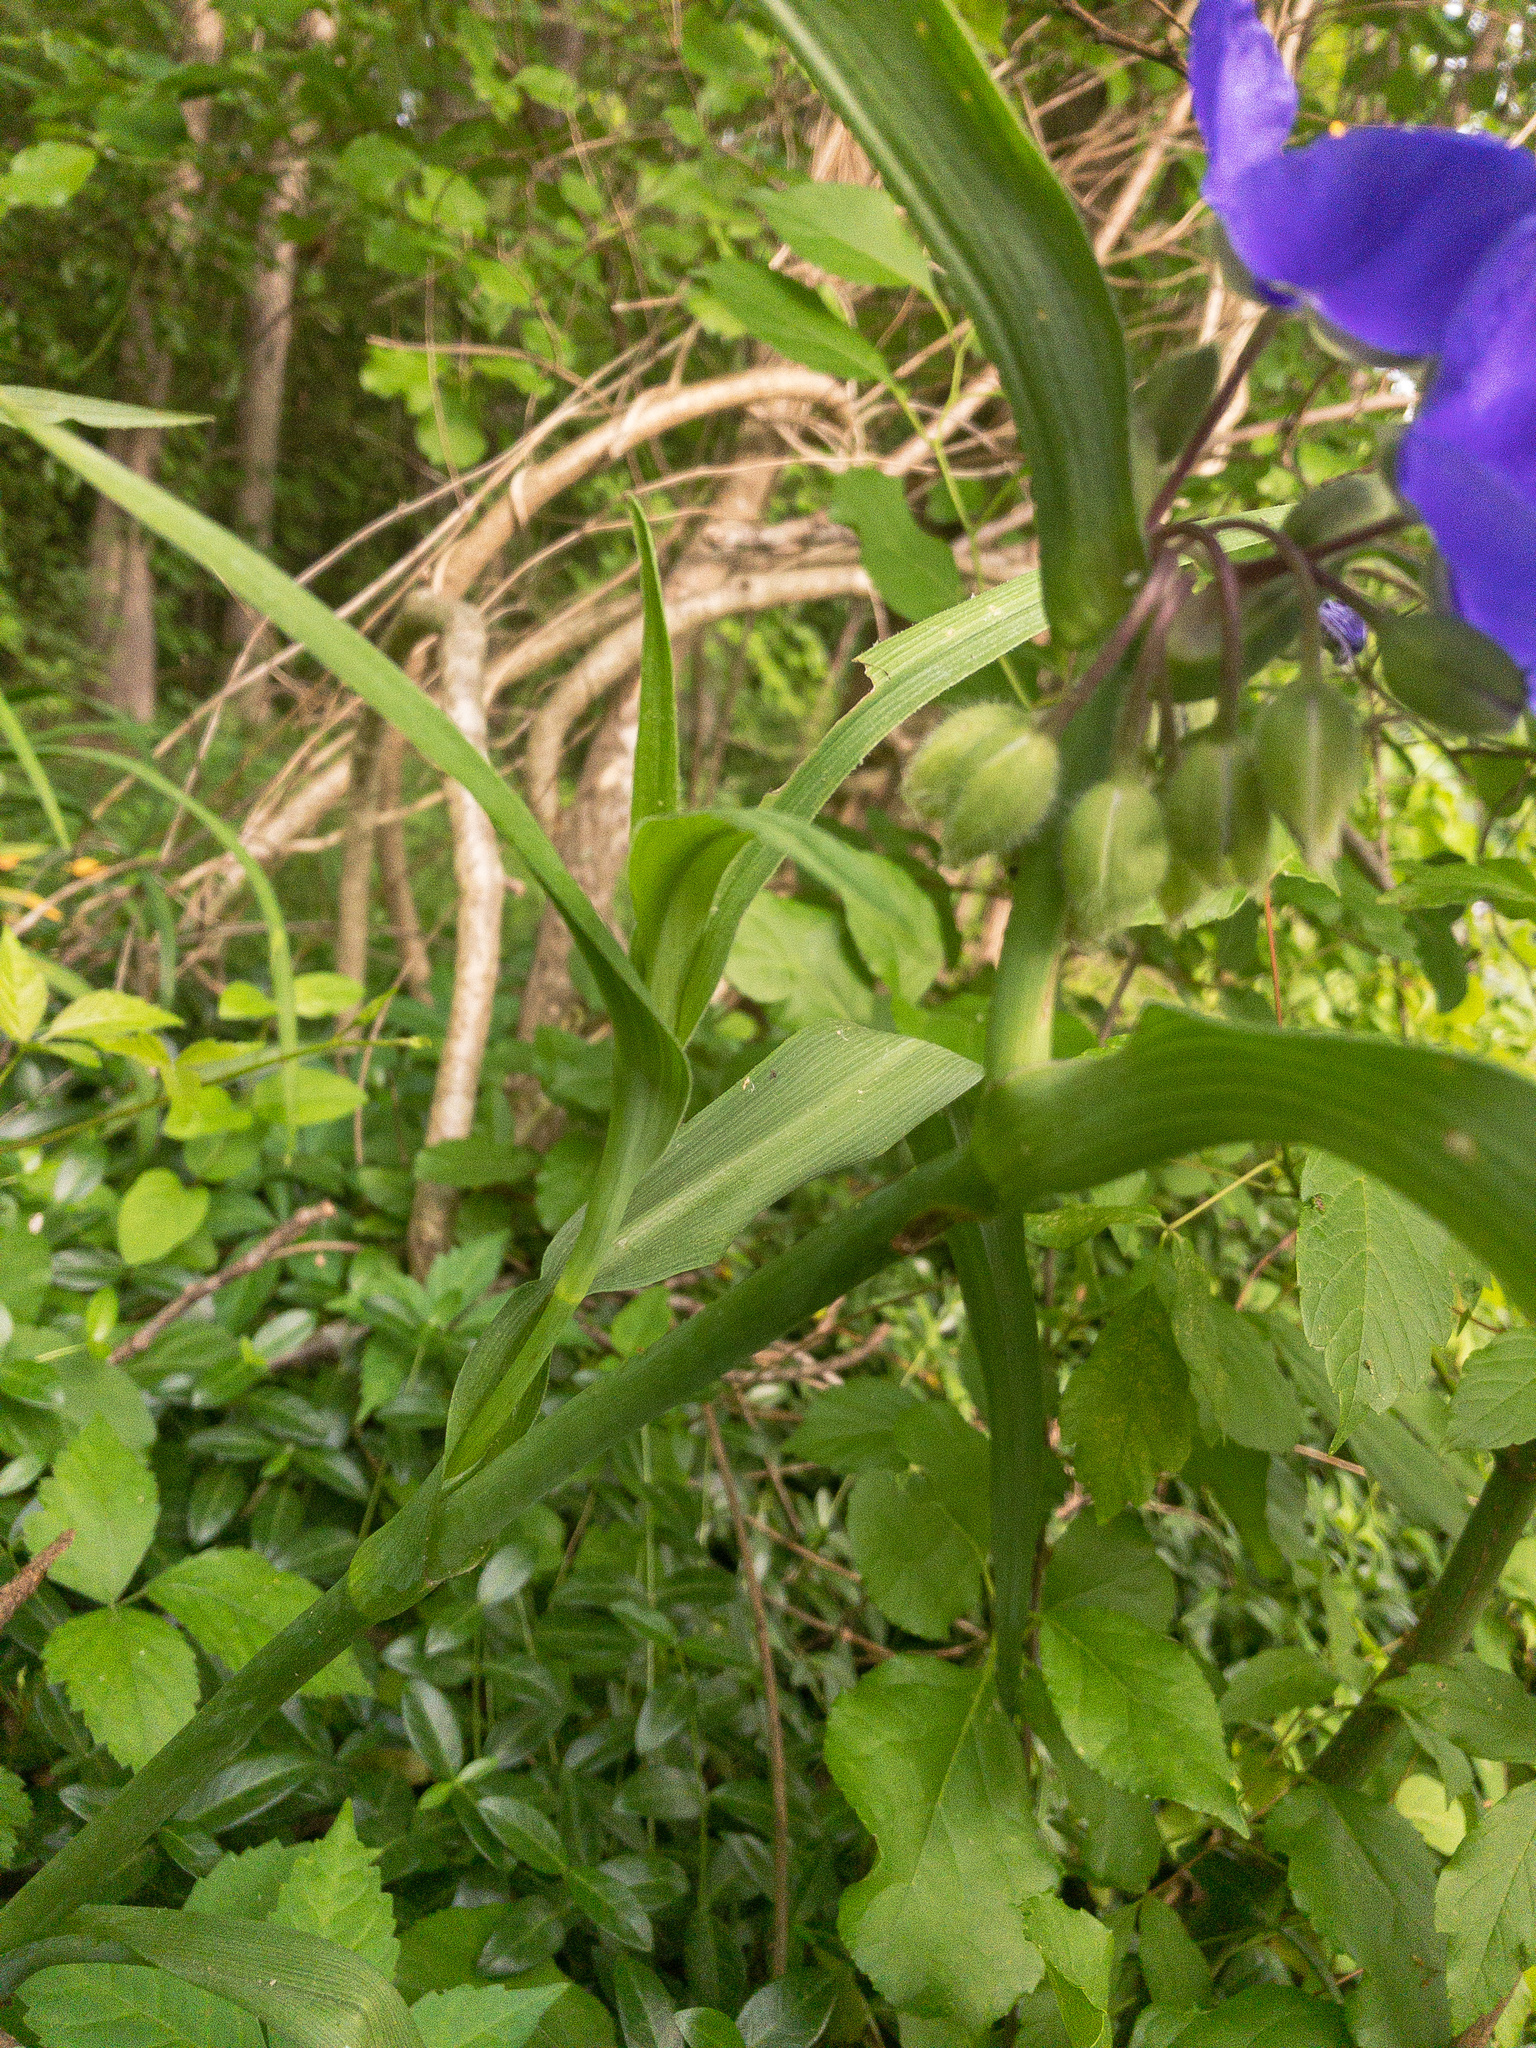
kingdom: Plantae
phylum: Tracheophyta
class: Liliopsida
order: Commelinales
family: Commelinaceae
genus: Tradescantia
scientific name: Tradescantia virginiana
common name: Spiderwort
